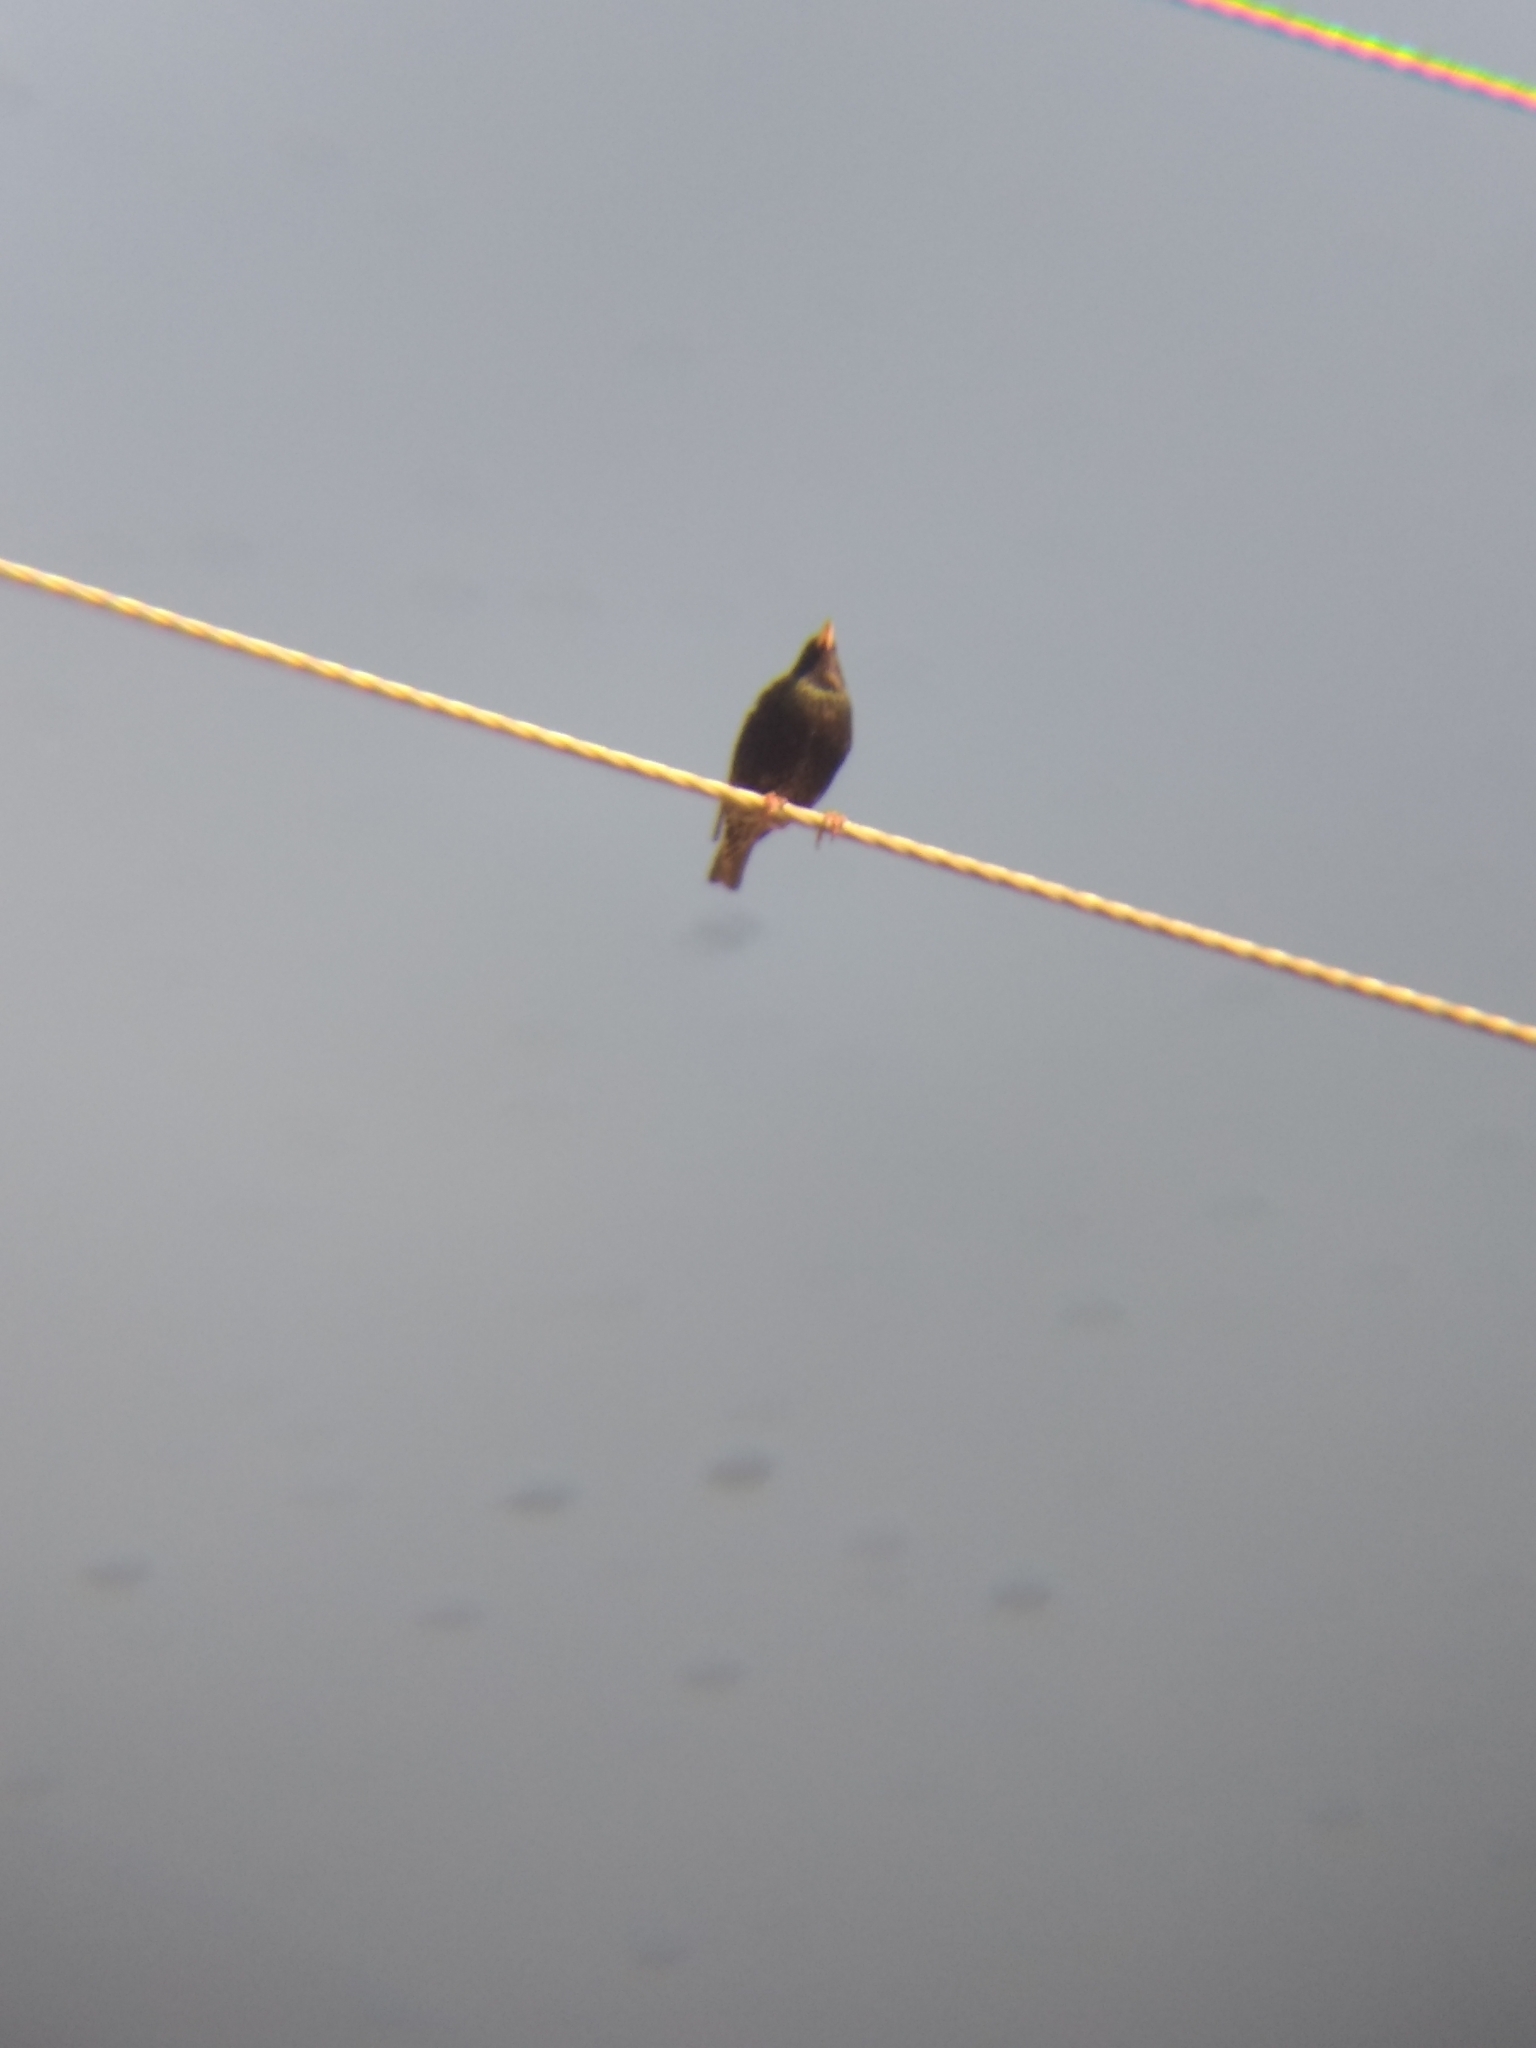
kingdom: Animalia
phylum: Chordata
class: Aves
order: Passeriformes
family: Sturnidae
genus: Sturnus
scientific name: Sturnus vulgaris
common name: Common starling
